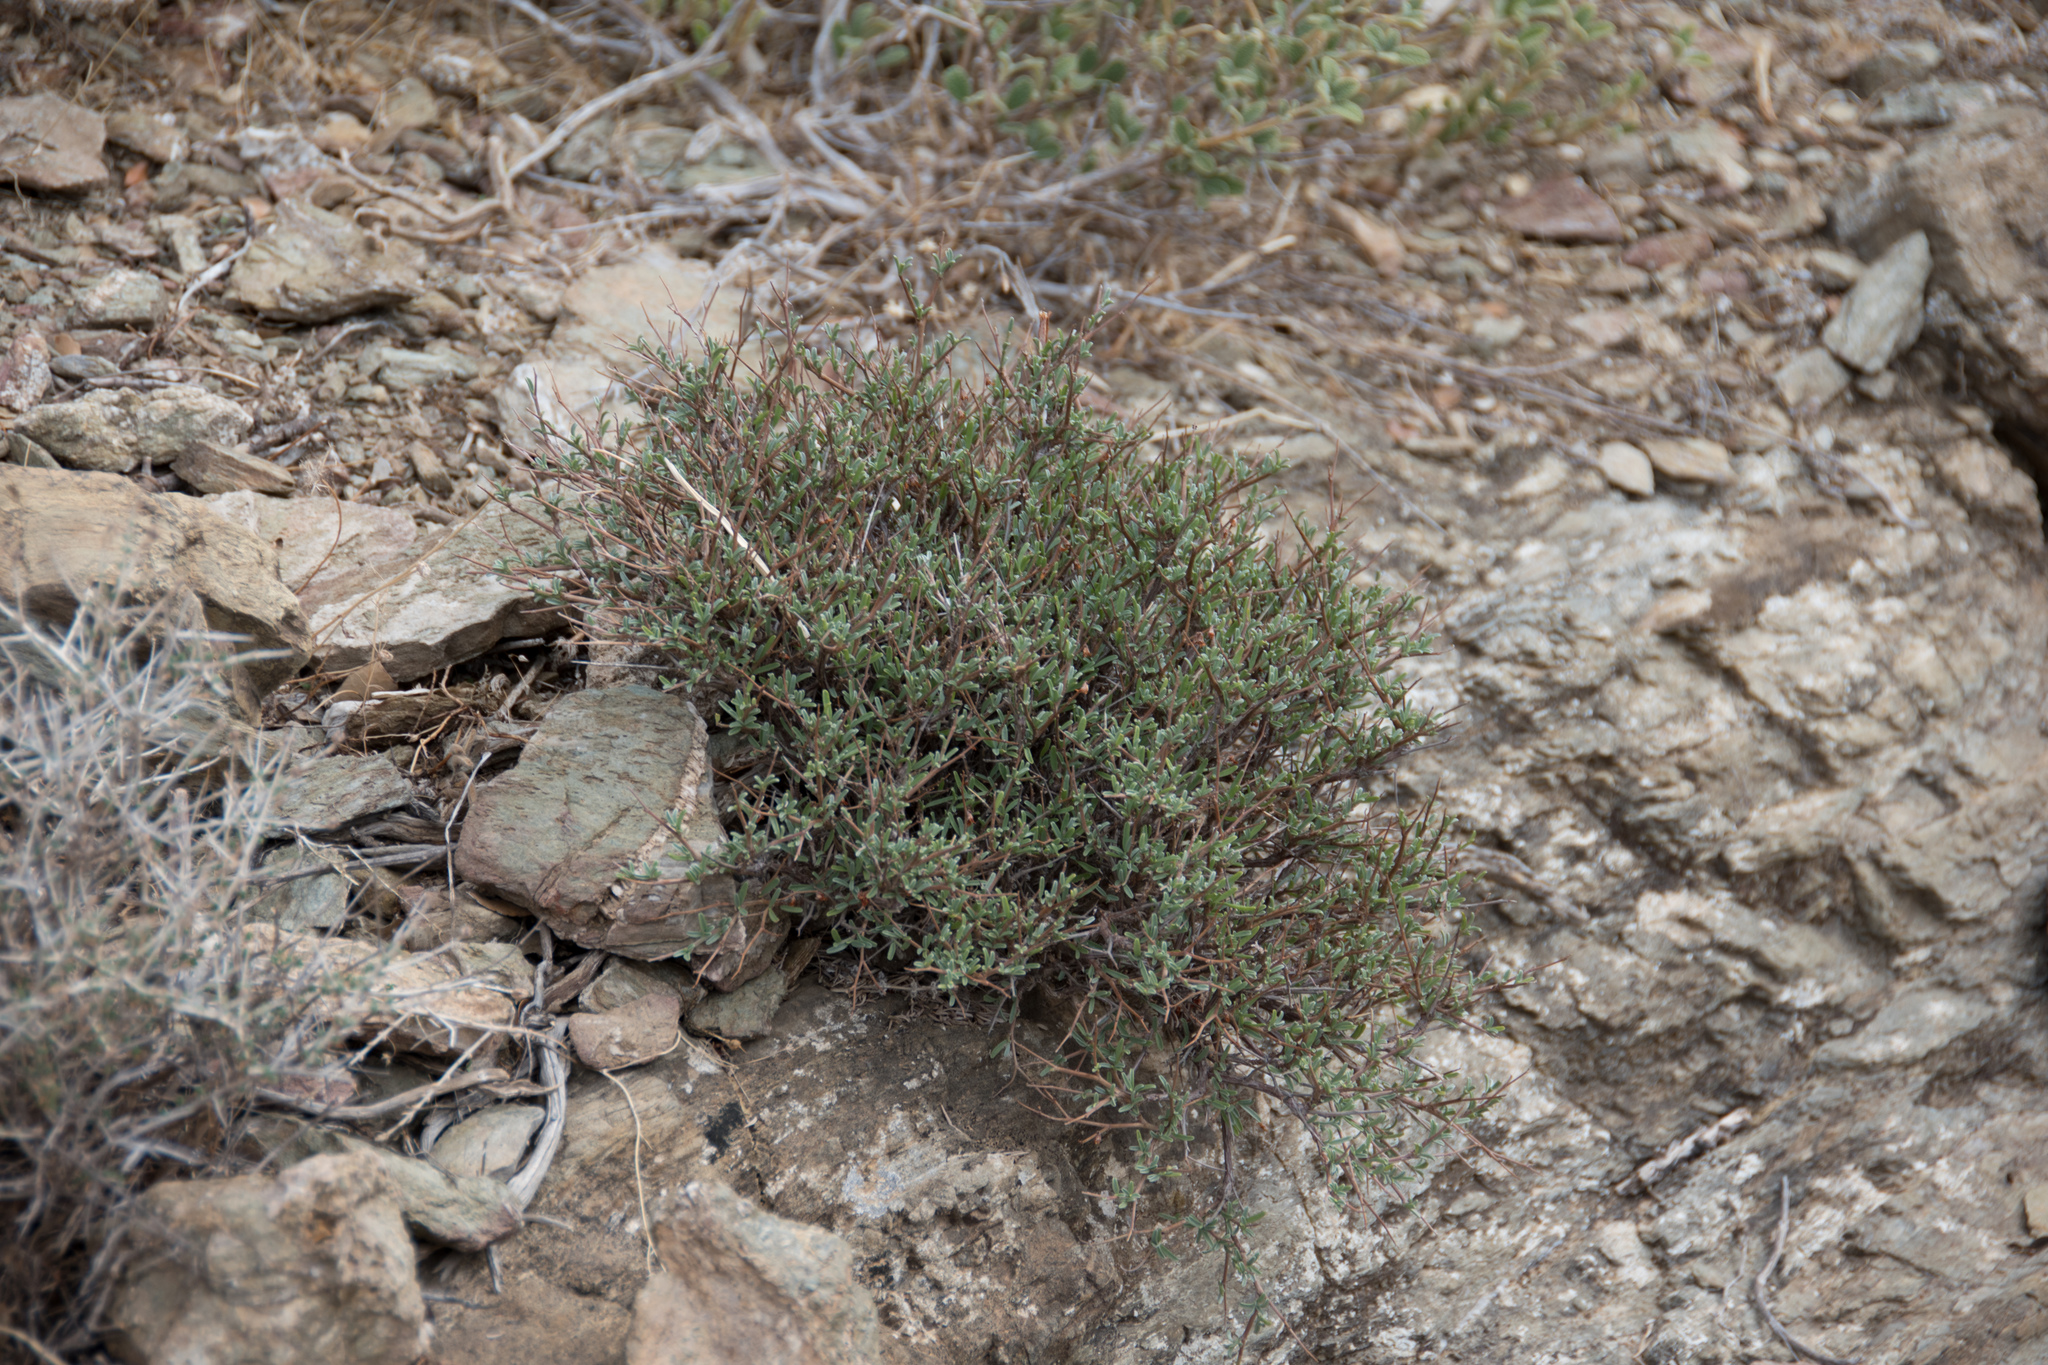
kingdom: Plantae
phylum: Tracheophyta
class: Magnoliopsida
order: Fabales
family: Fabaceae
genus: Anthyllis
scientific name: Anthyllis hermanniae
